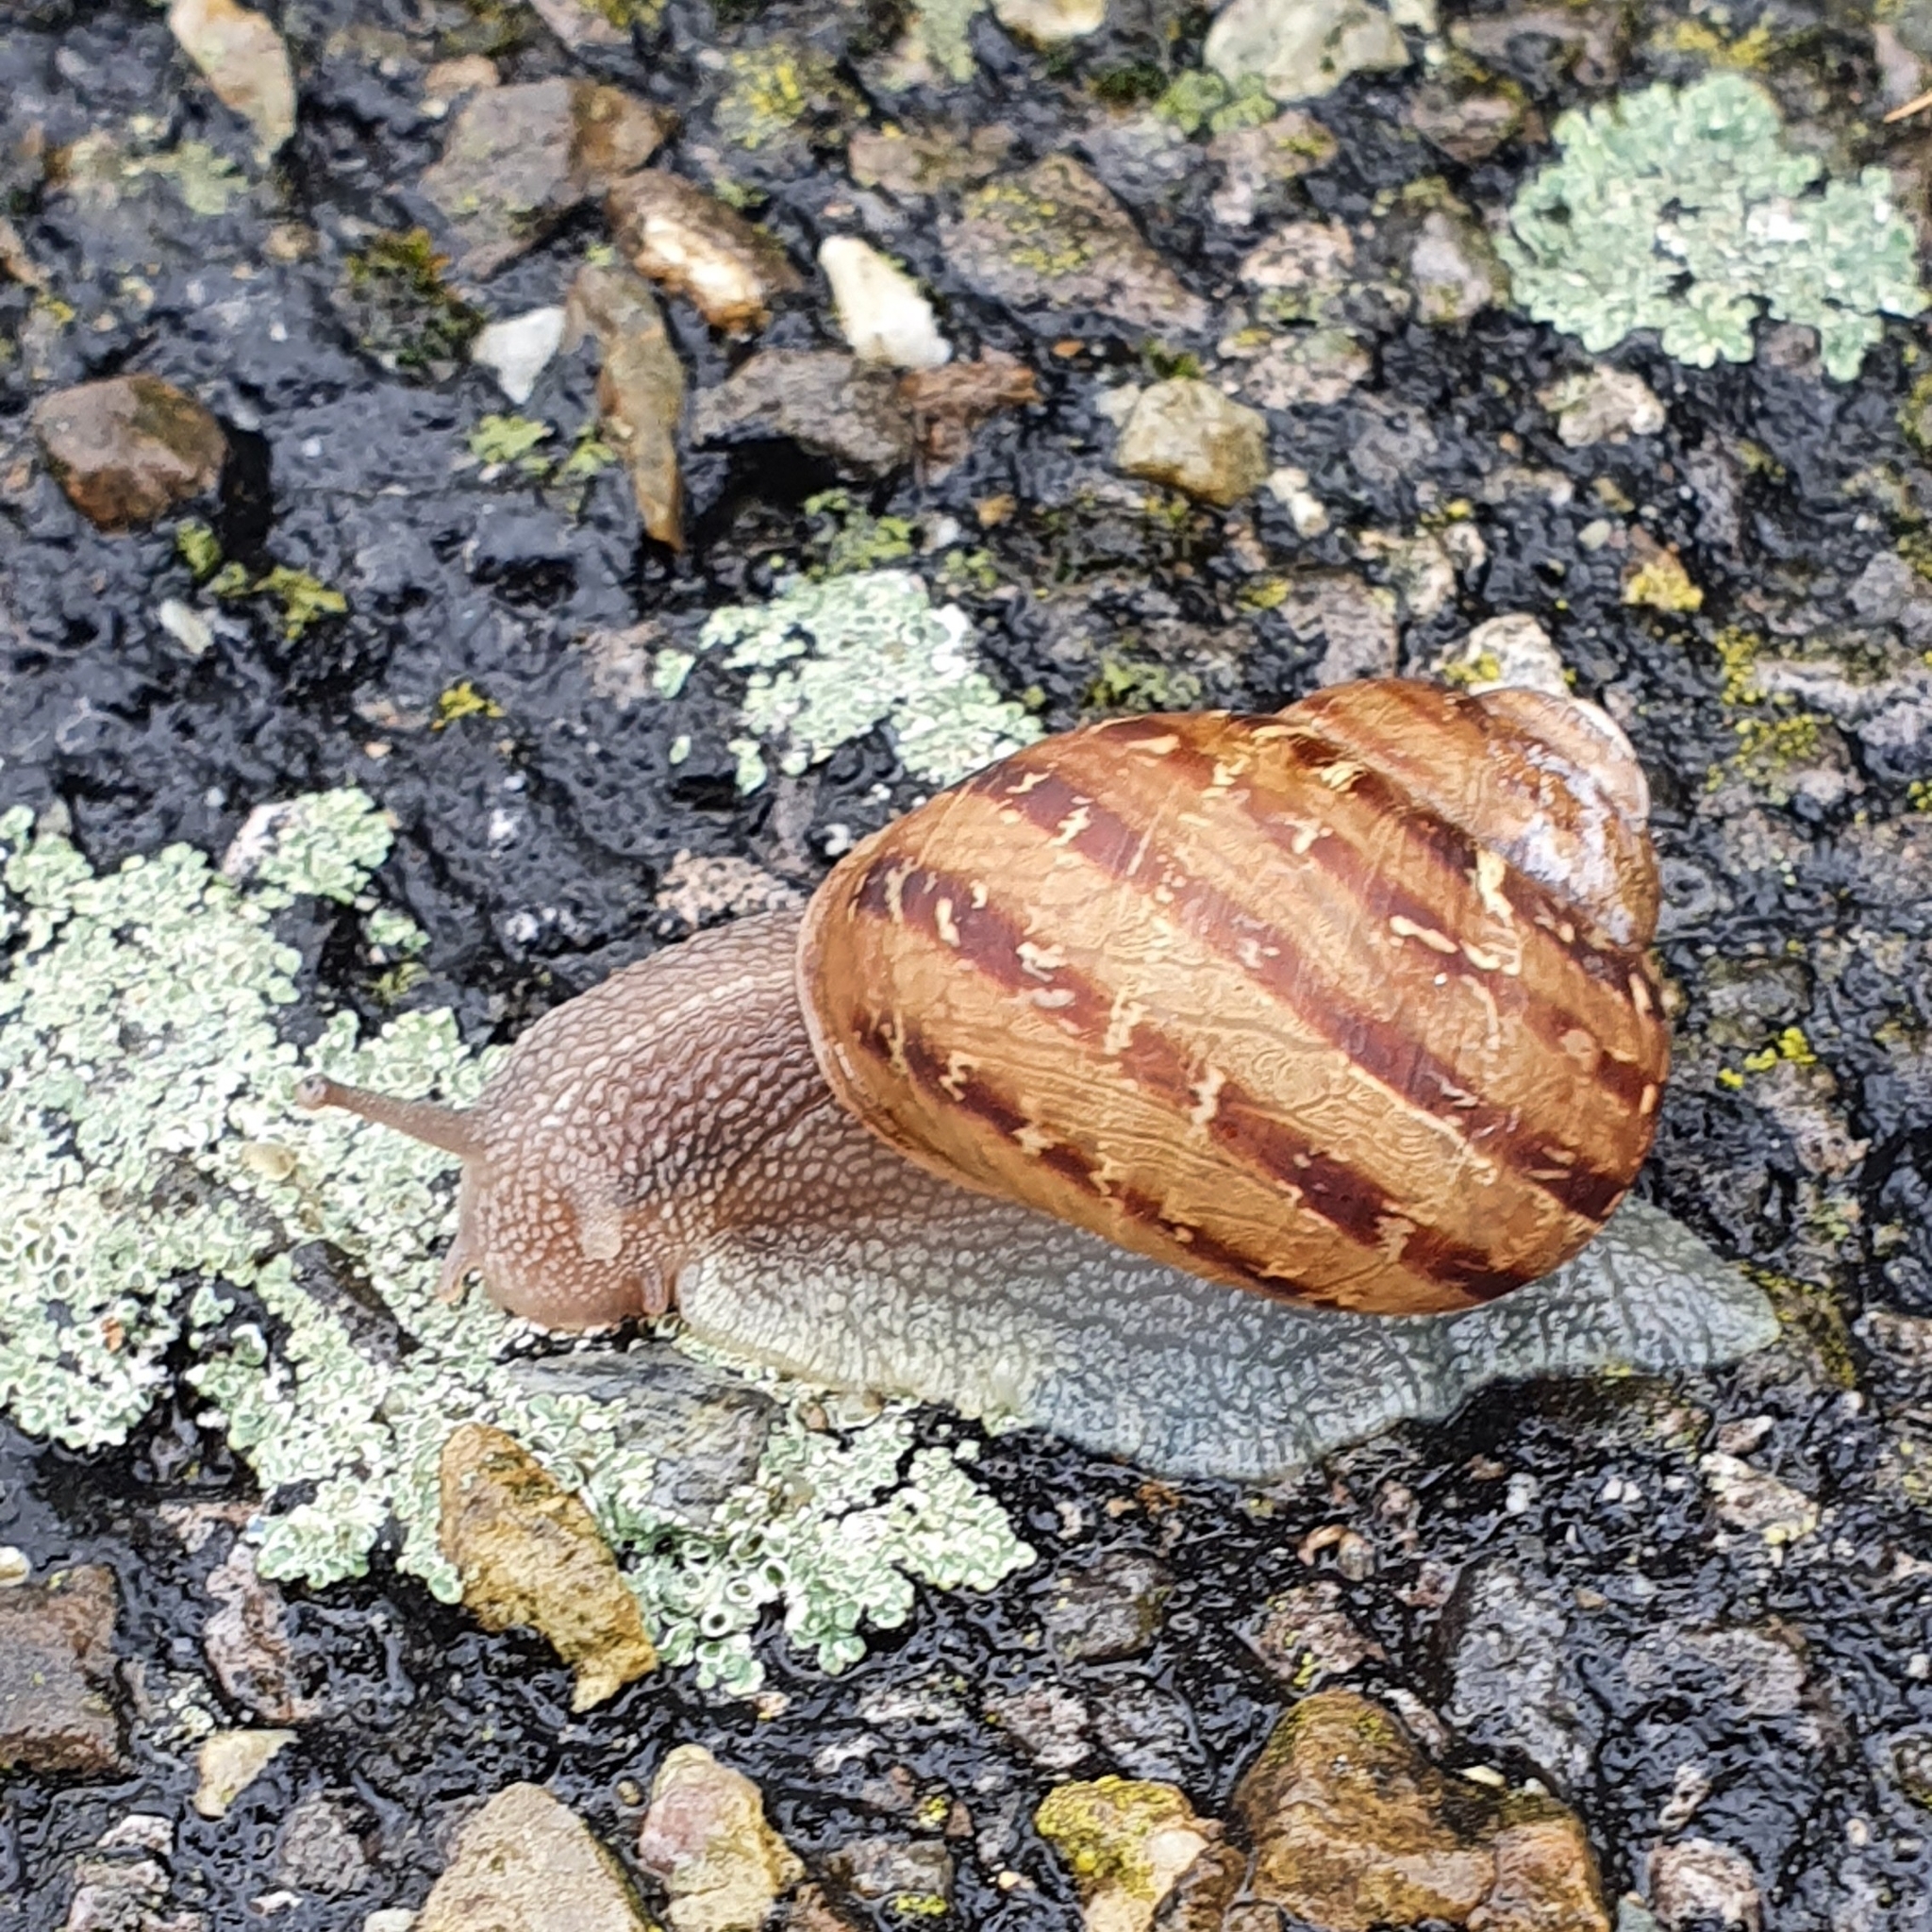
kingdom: Animalia
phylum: Mollusca
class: Gastropoda
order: Stylommatophora
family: Helicidae
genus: Cornu
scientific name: Cornu aspersum
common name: Brown garden snail
